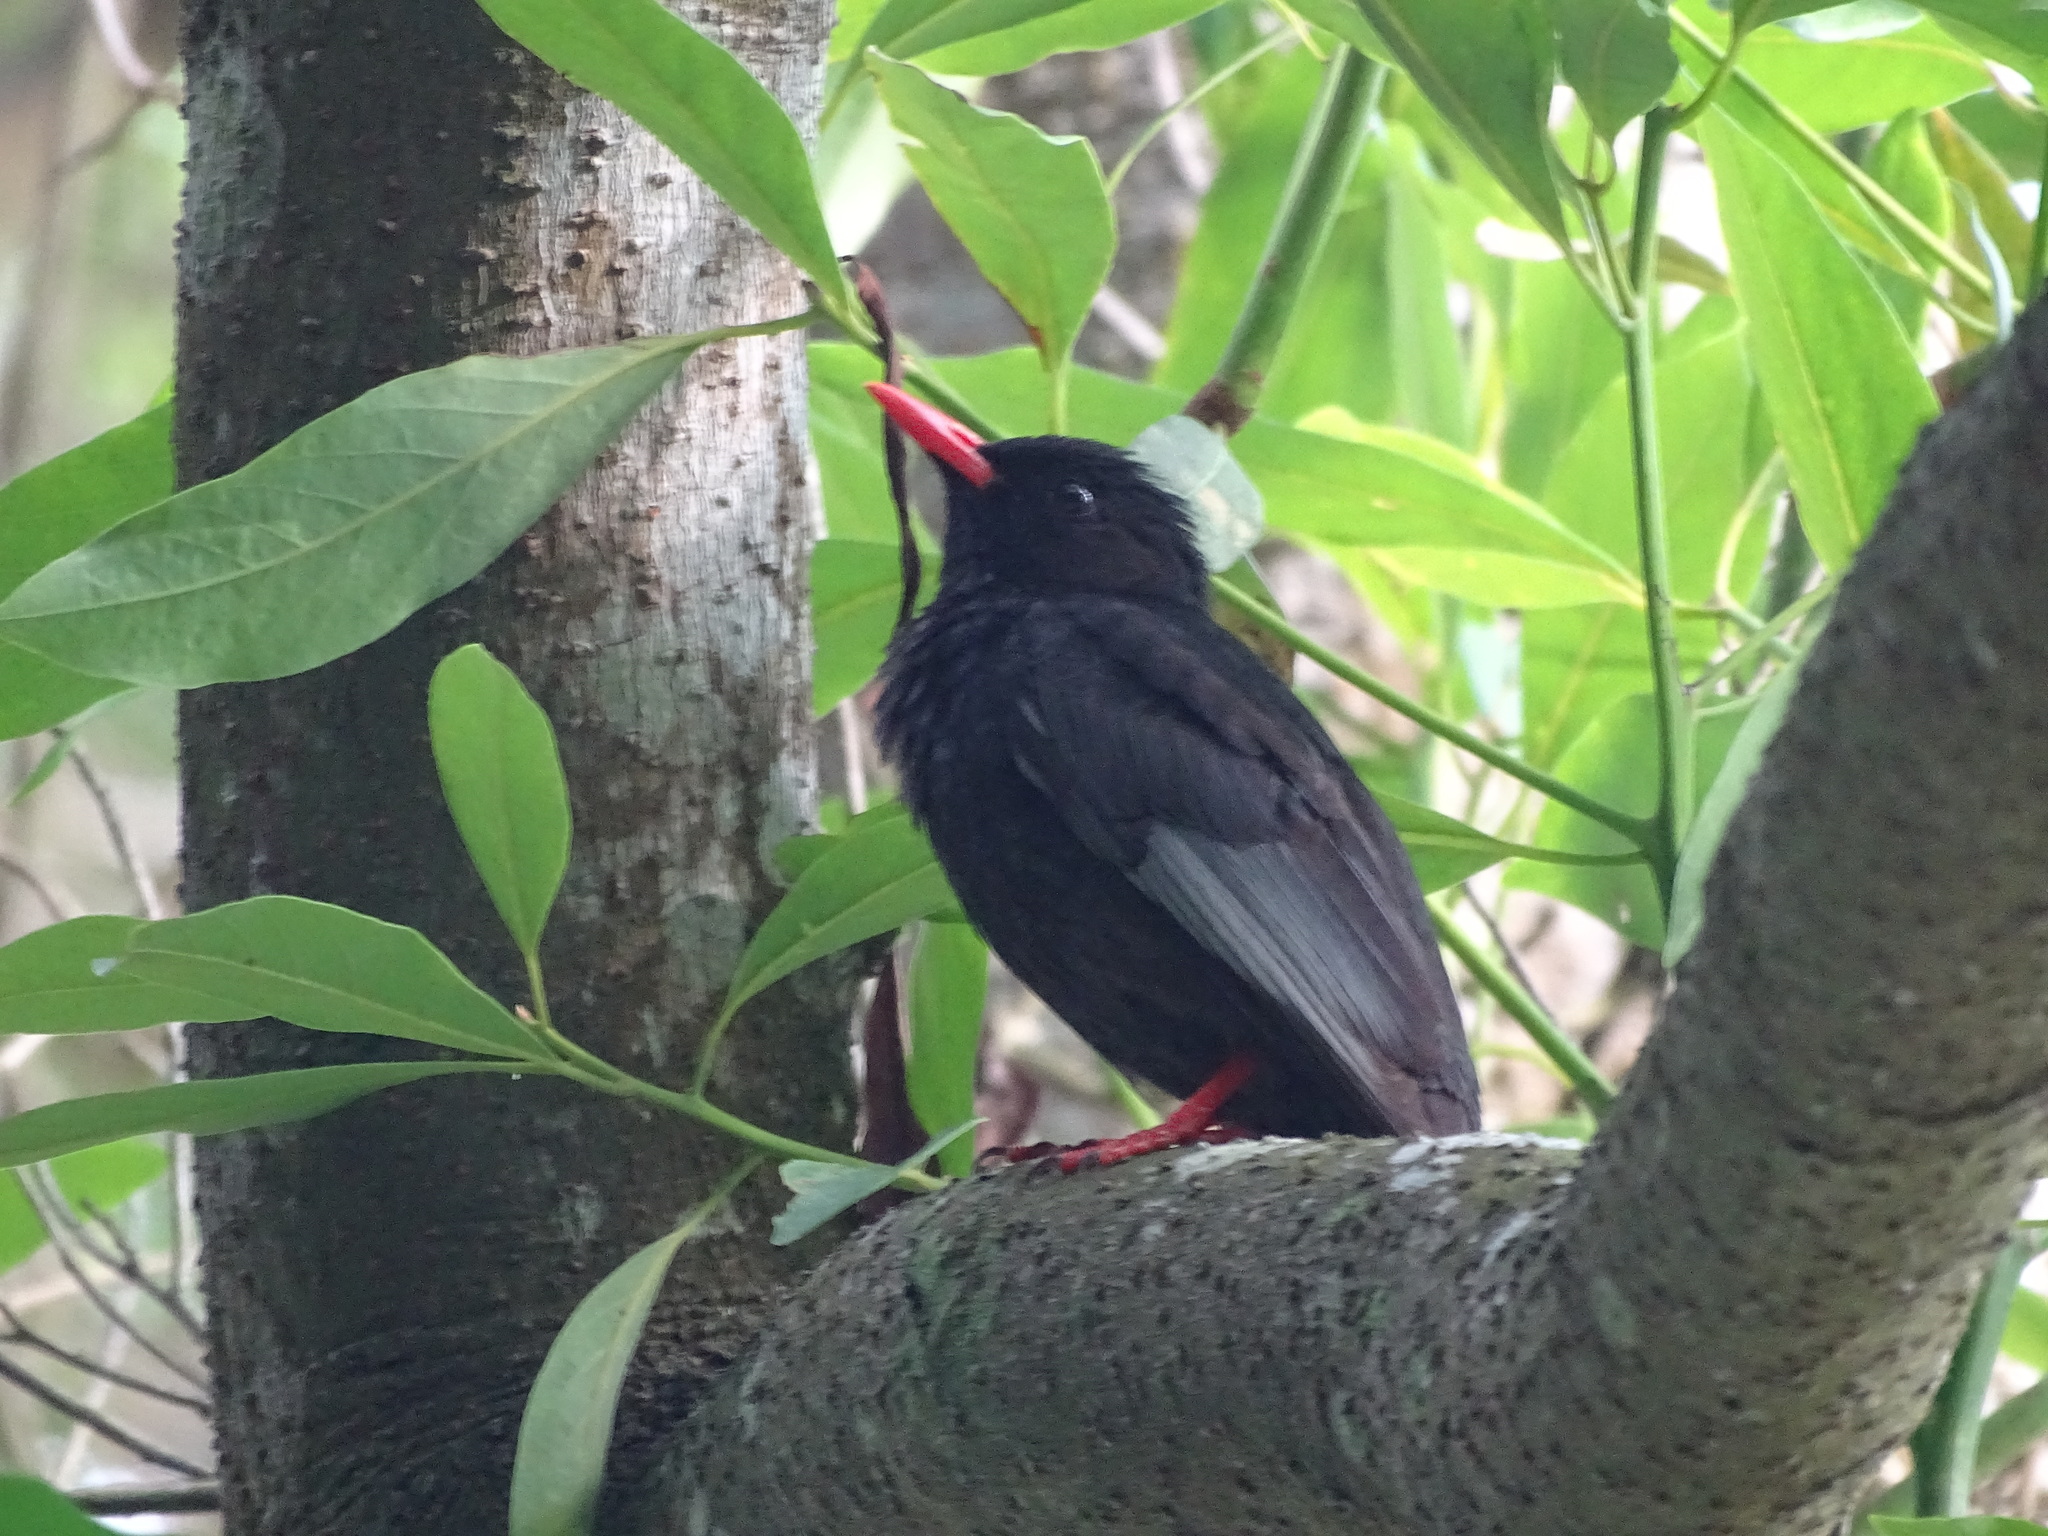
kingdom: Animalia
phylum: Chordata
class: Aves
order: Passeriformes
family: Pycnonotidae
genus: Hypsipetes
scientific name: Hypsipetes leucocephalus
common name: Black bulbul
